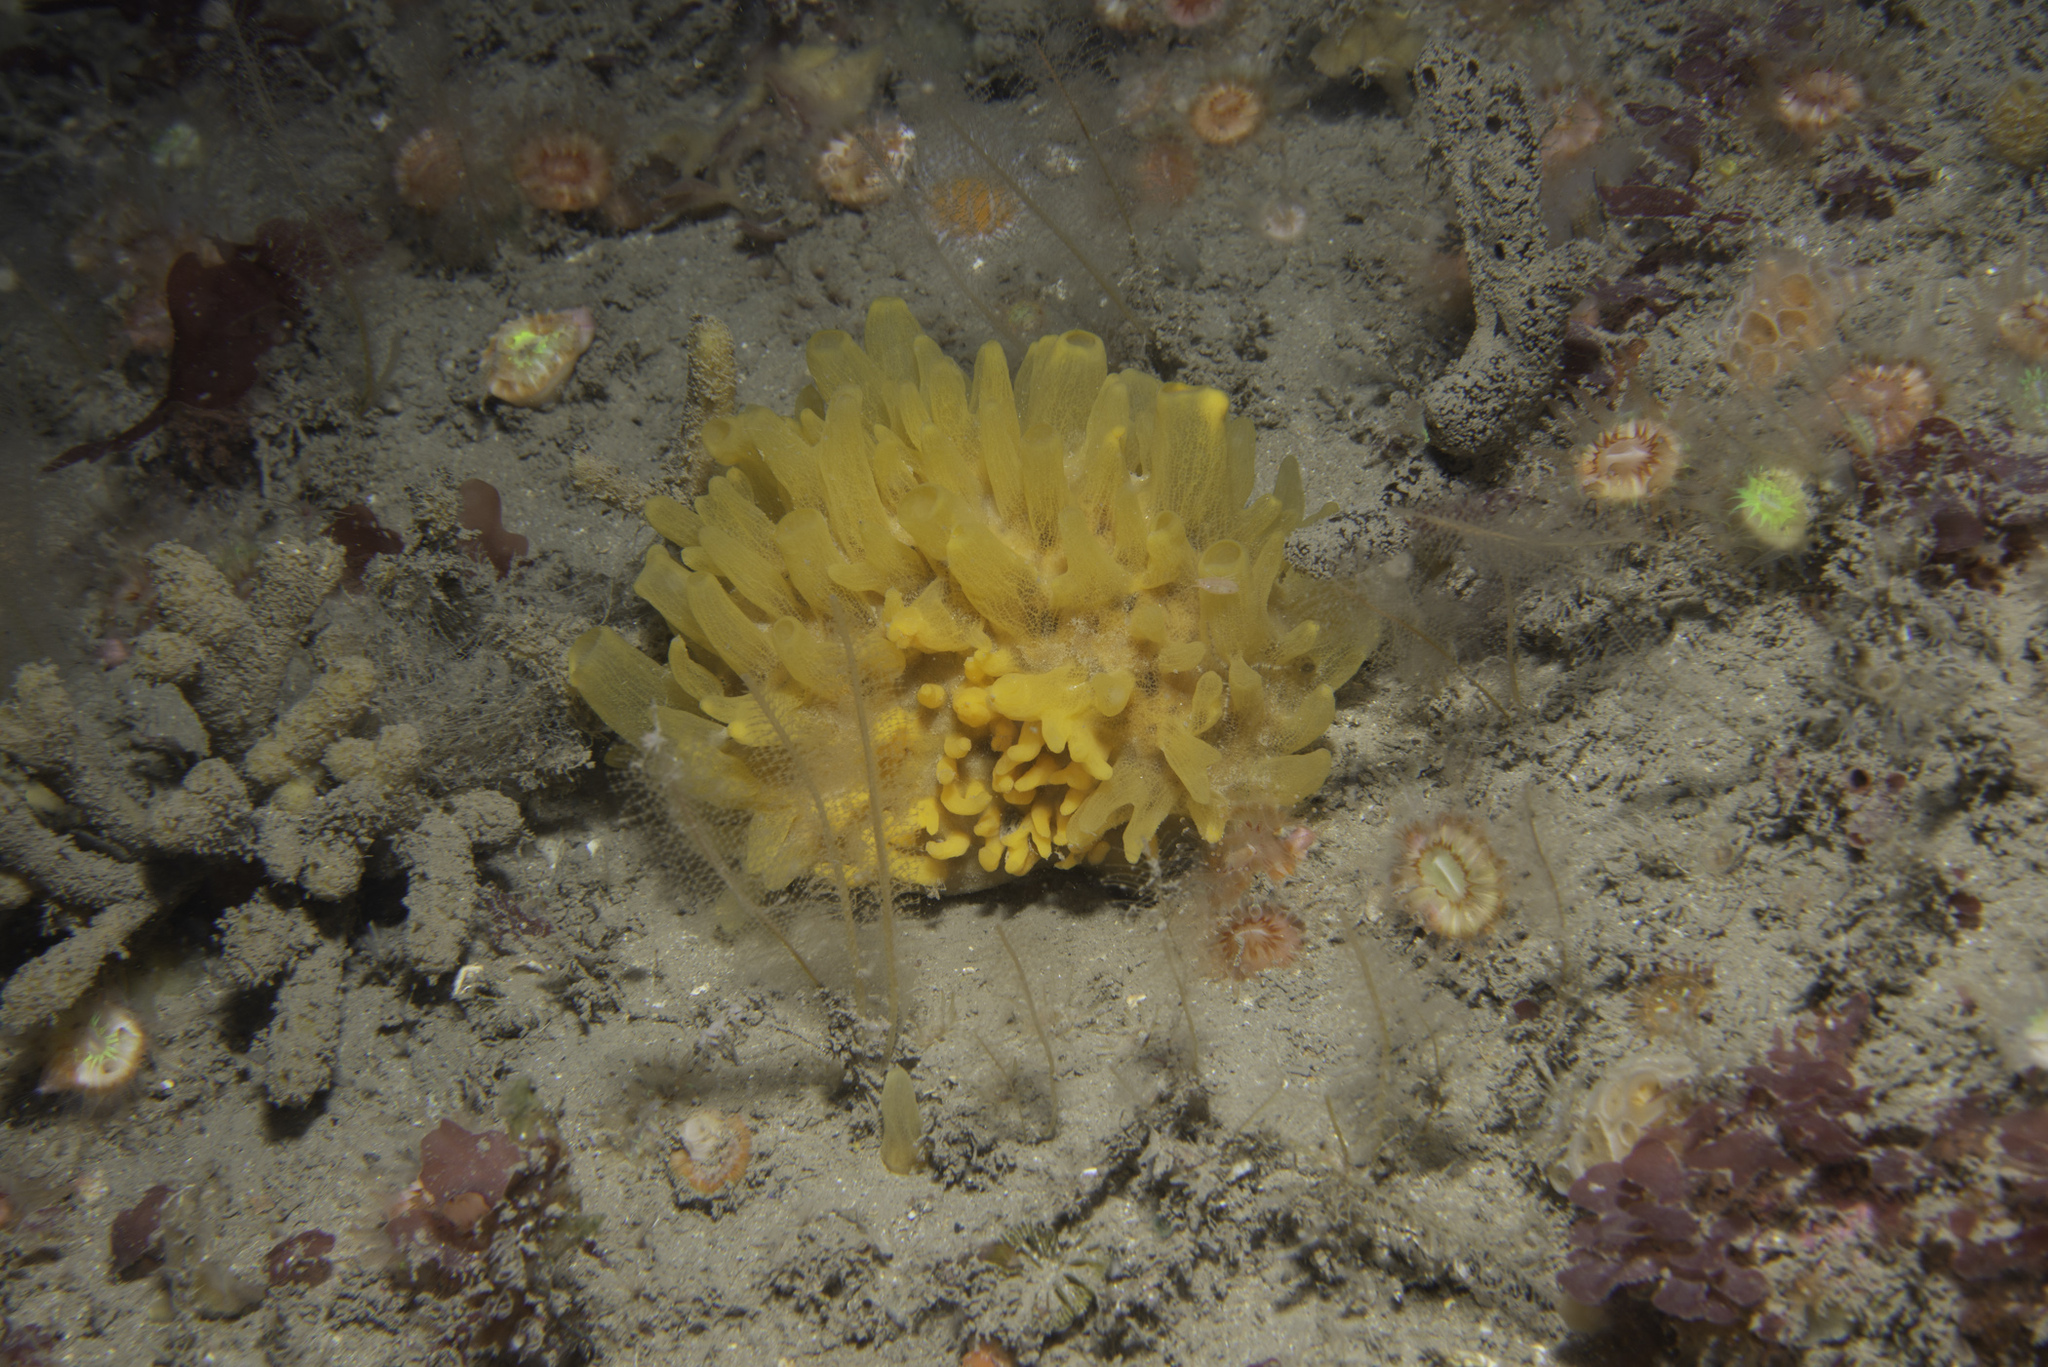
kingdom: Animalia
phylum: Porifera
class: Demospongiae
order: Polymastiida
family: Polymastiidae
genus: Polymastia
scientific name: Polymastia boletiformis
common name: Massive horny sponge
